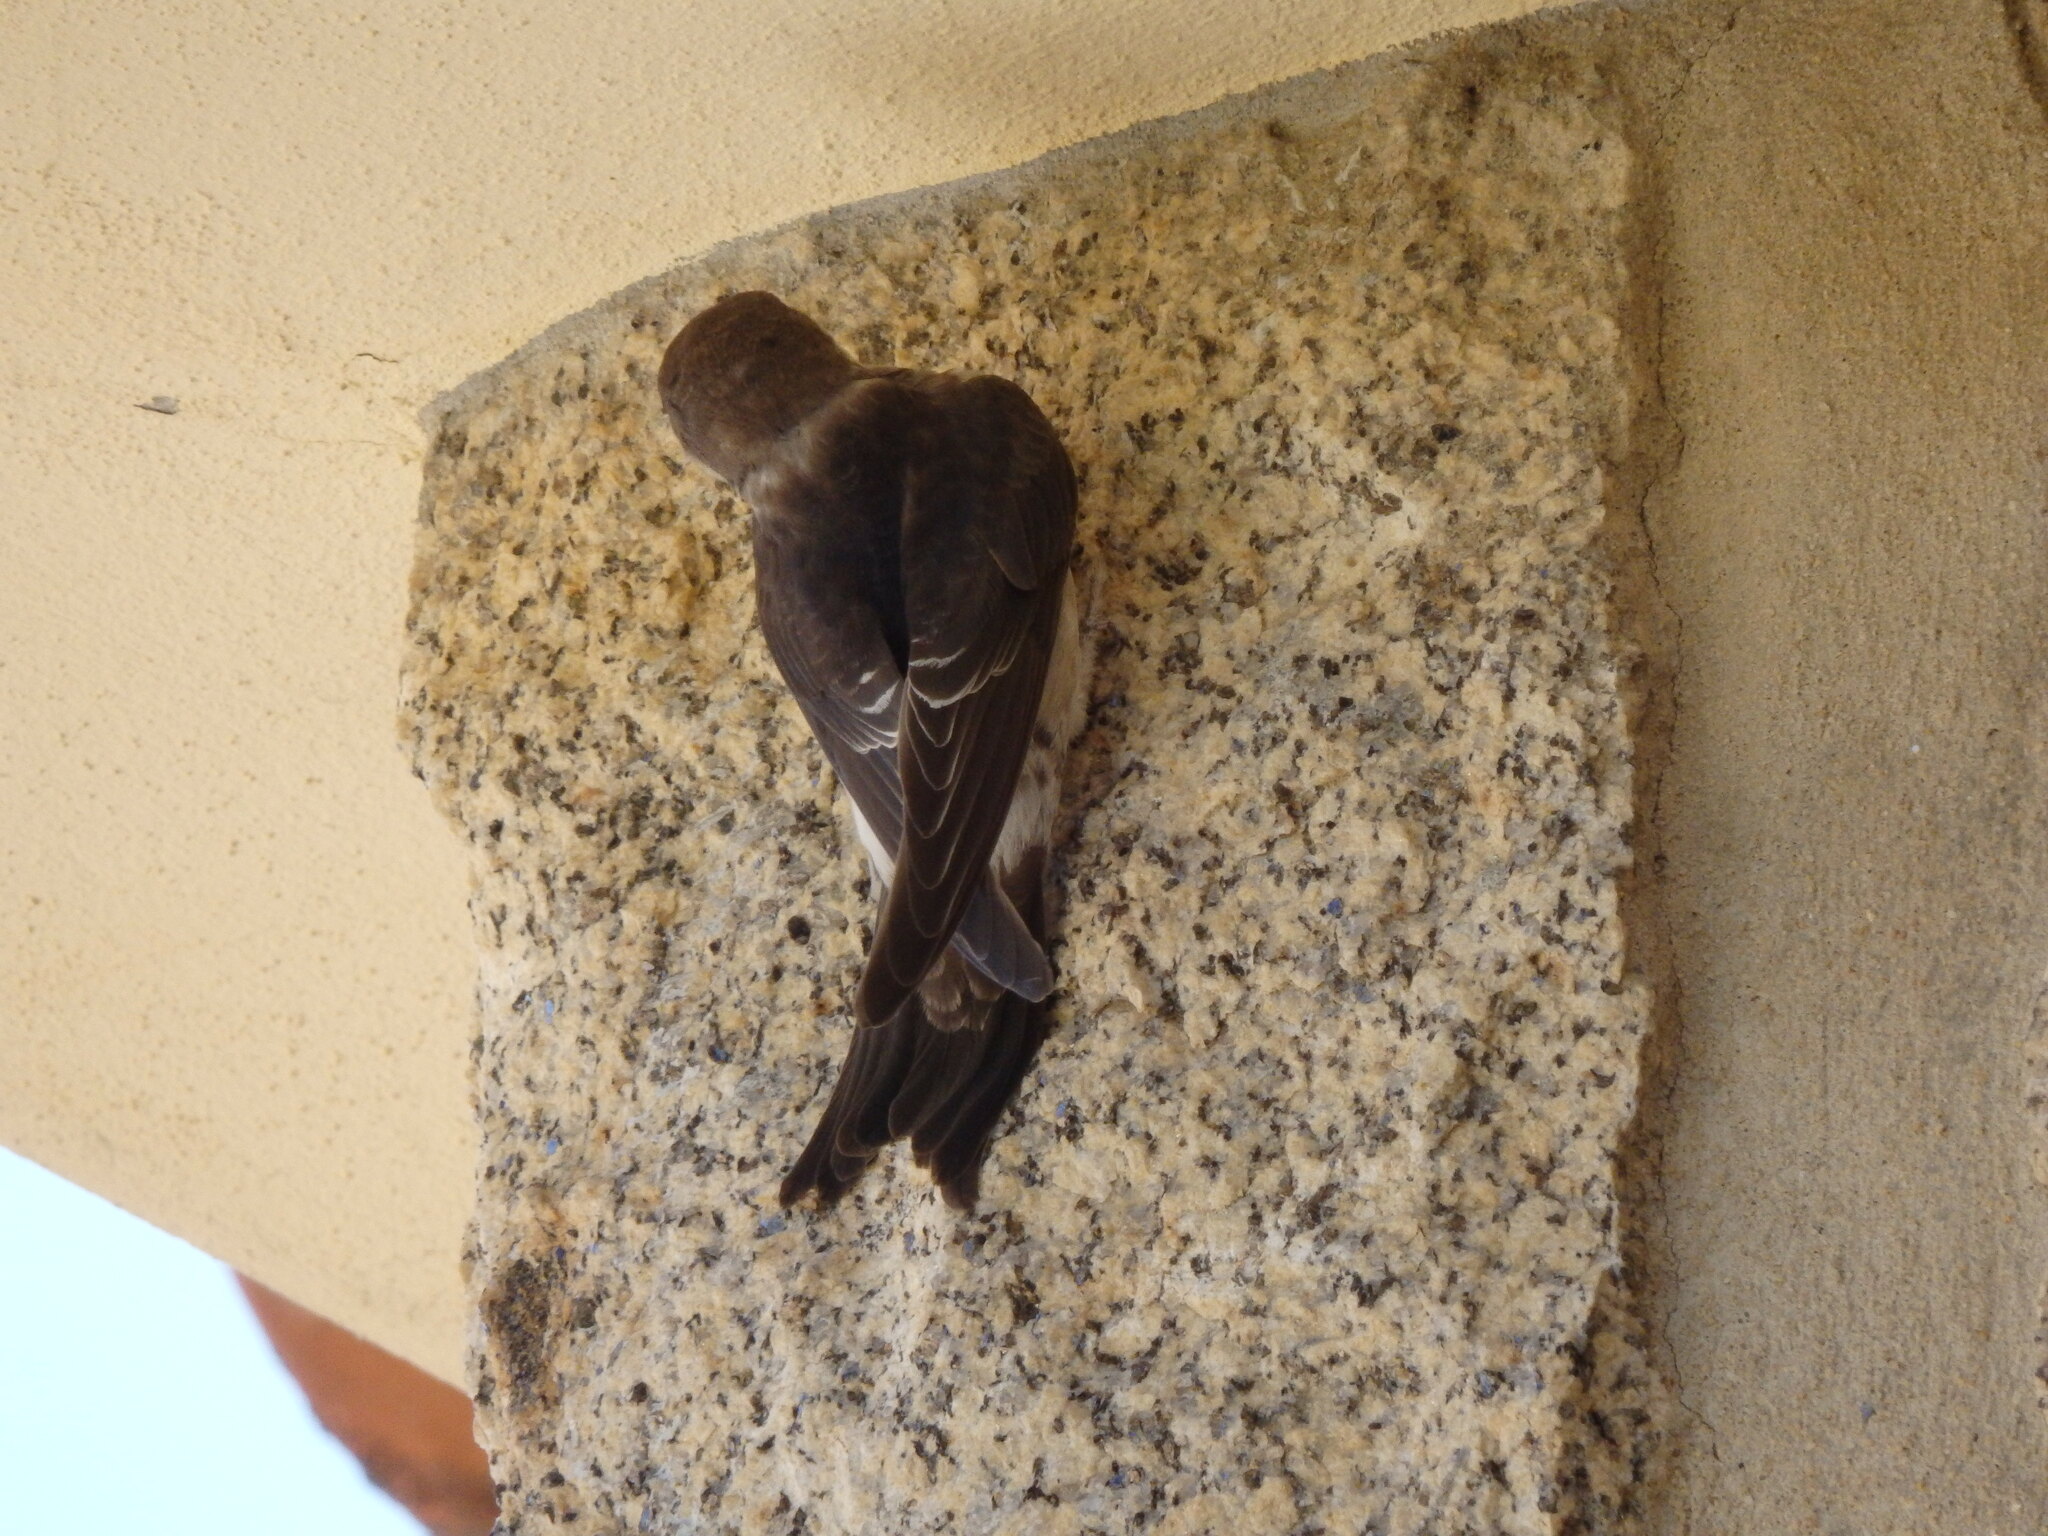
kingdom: Animalia
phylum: Chordata
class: Aves
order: Passeriformes
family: Hirundinidae
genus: Delichon
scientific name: Delichon urbicum
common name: Common house martin
